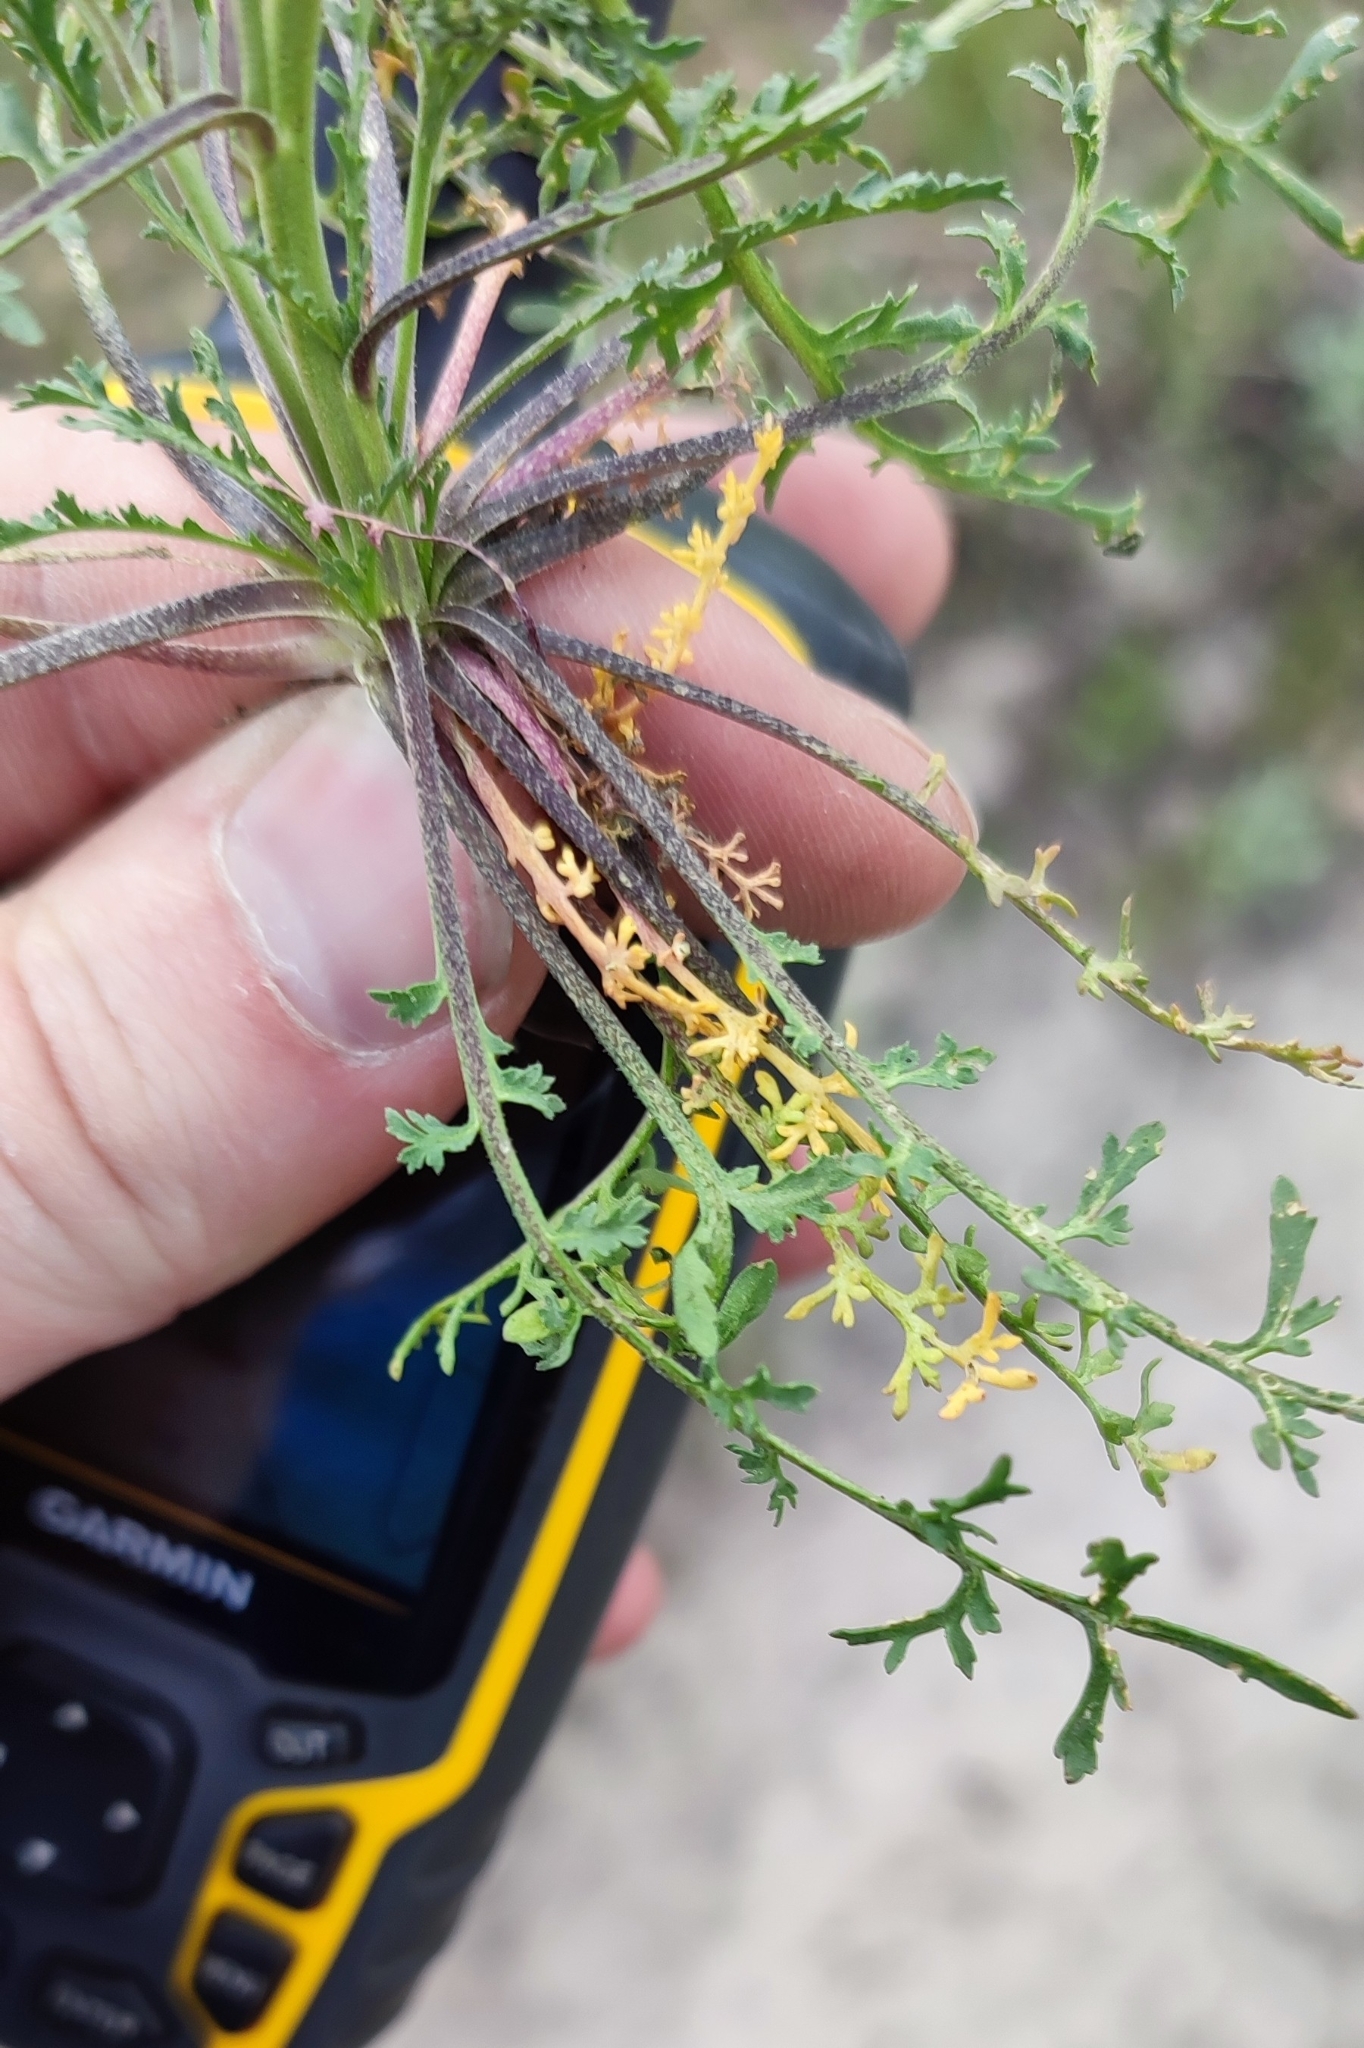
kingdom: Plantae
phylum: Tracheophyta
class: Magnoliopsida
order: Brassicales
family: Brassicaceae
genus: Lepidium
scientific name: Lepidium ruderale
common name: Narrow-leaved pepperwort
